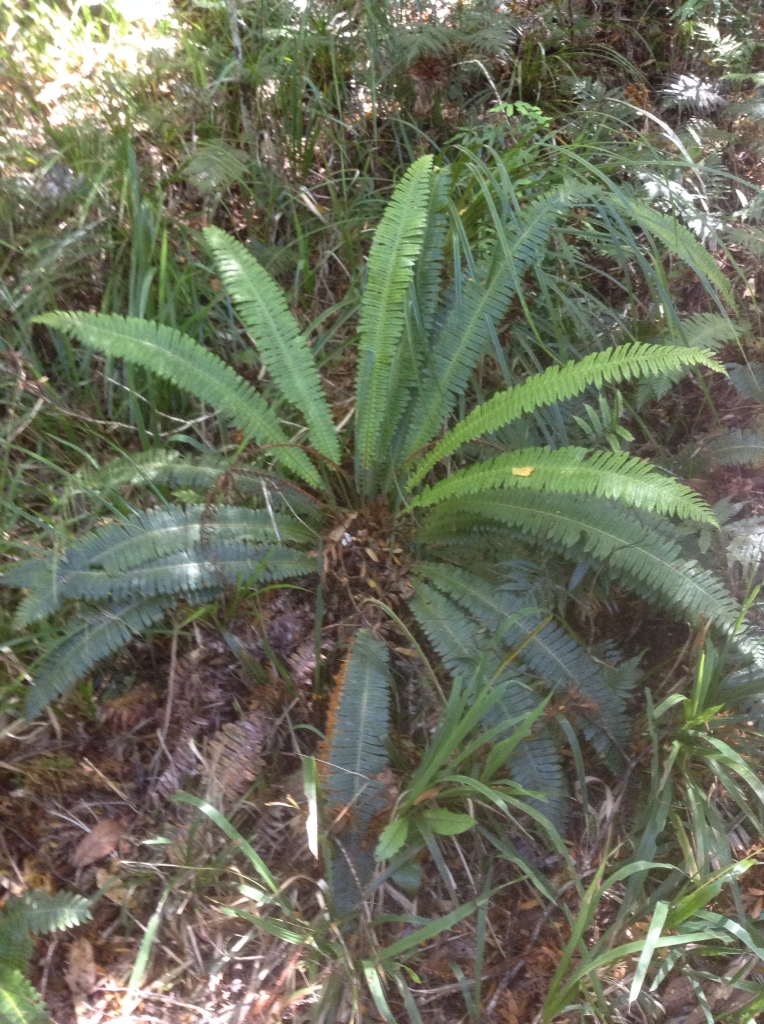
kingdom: Plantae
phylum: Tracheophyta
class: Polypodiopsida
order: Polypodiales
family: Blechnaceae
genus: Lomaria
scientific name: Lomaria discolor
